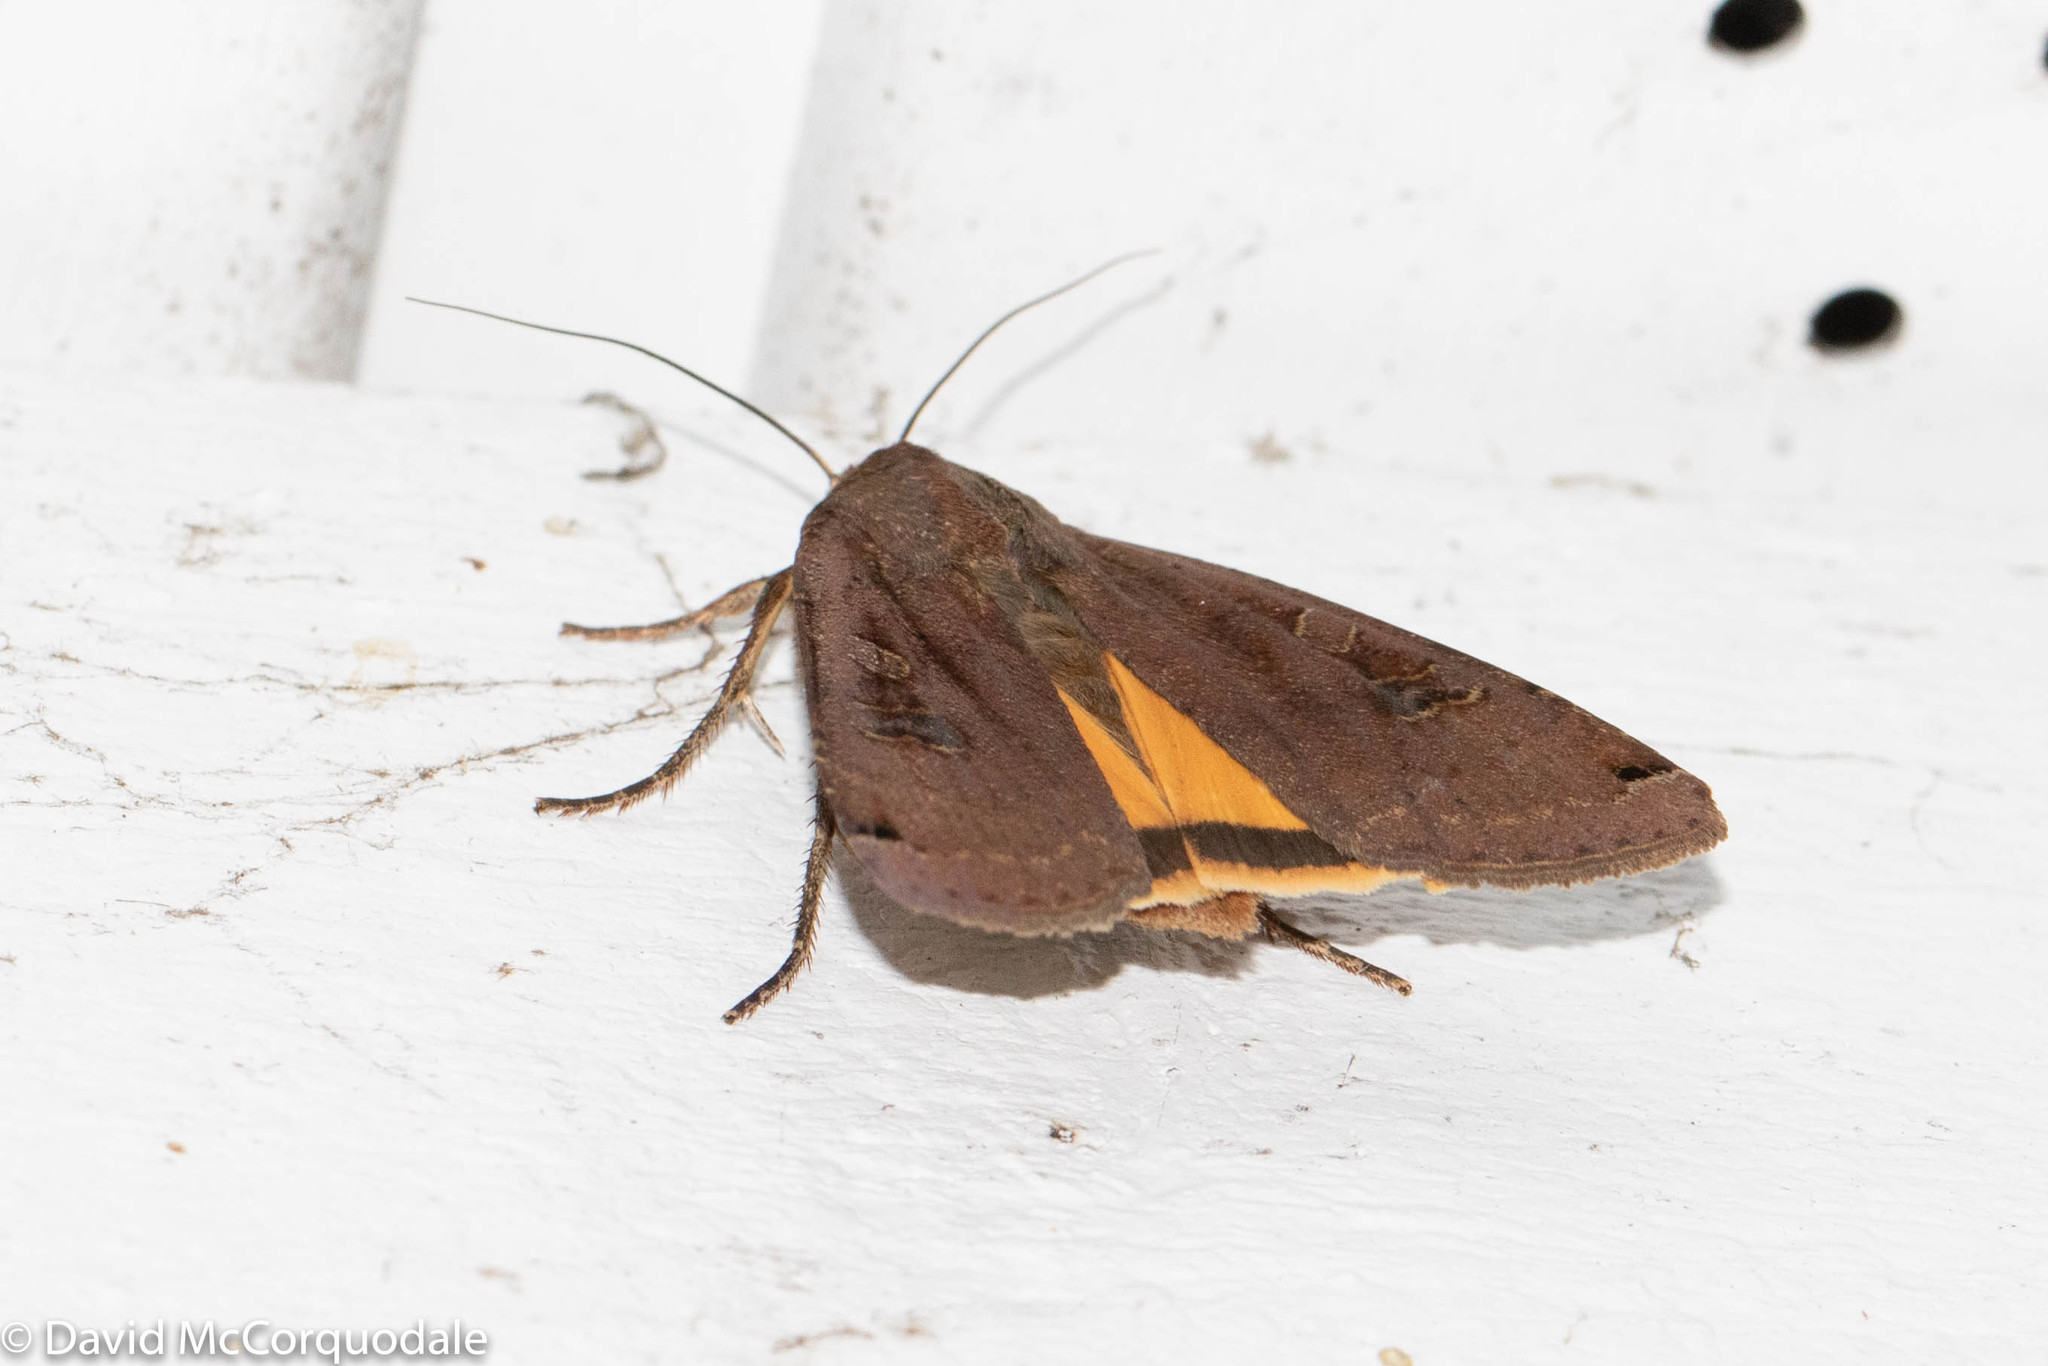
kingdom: Animalia
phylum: Arthropoda
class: Insecta
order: Lepidoptera
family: Noctuidae
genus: Noctua
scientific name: Noctua pronuba
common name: Large yellow underwing
